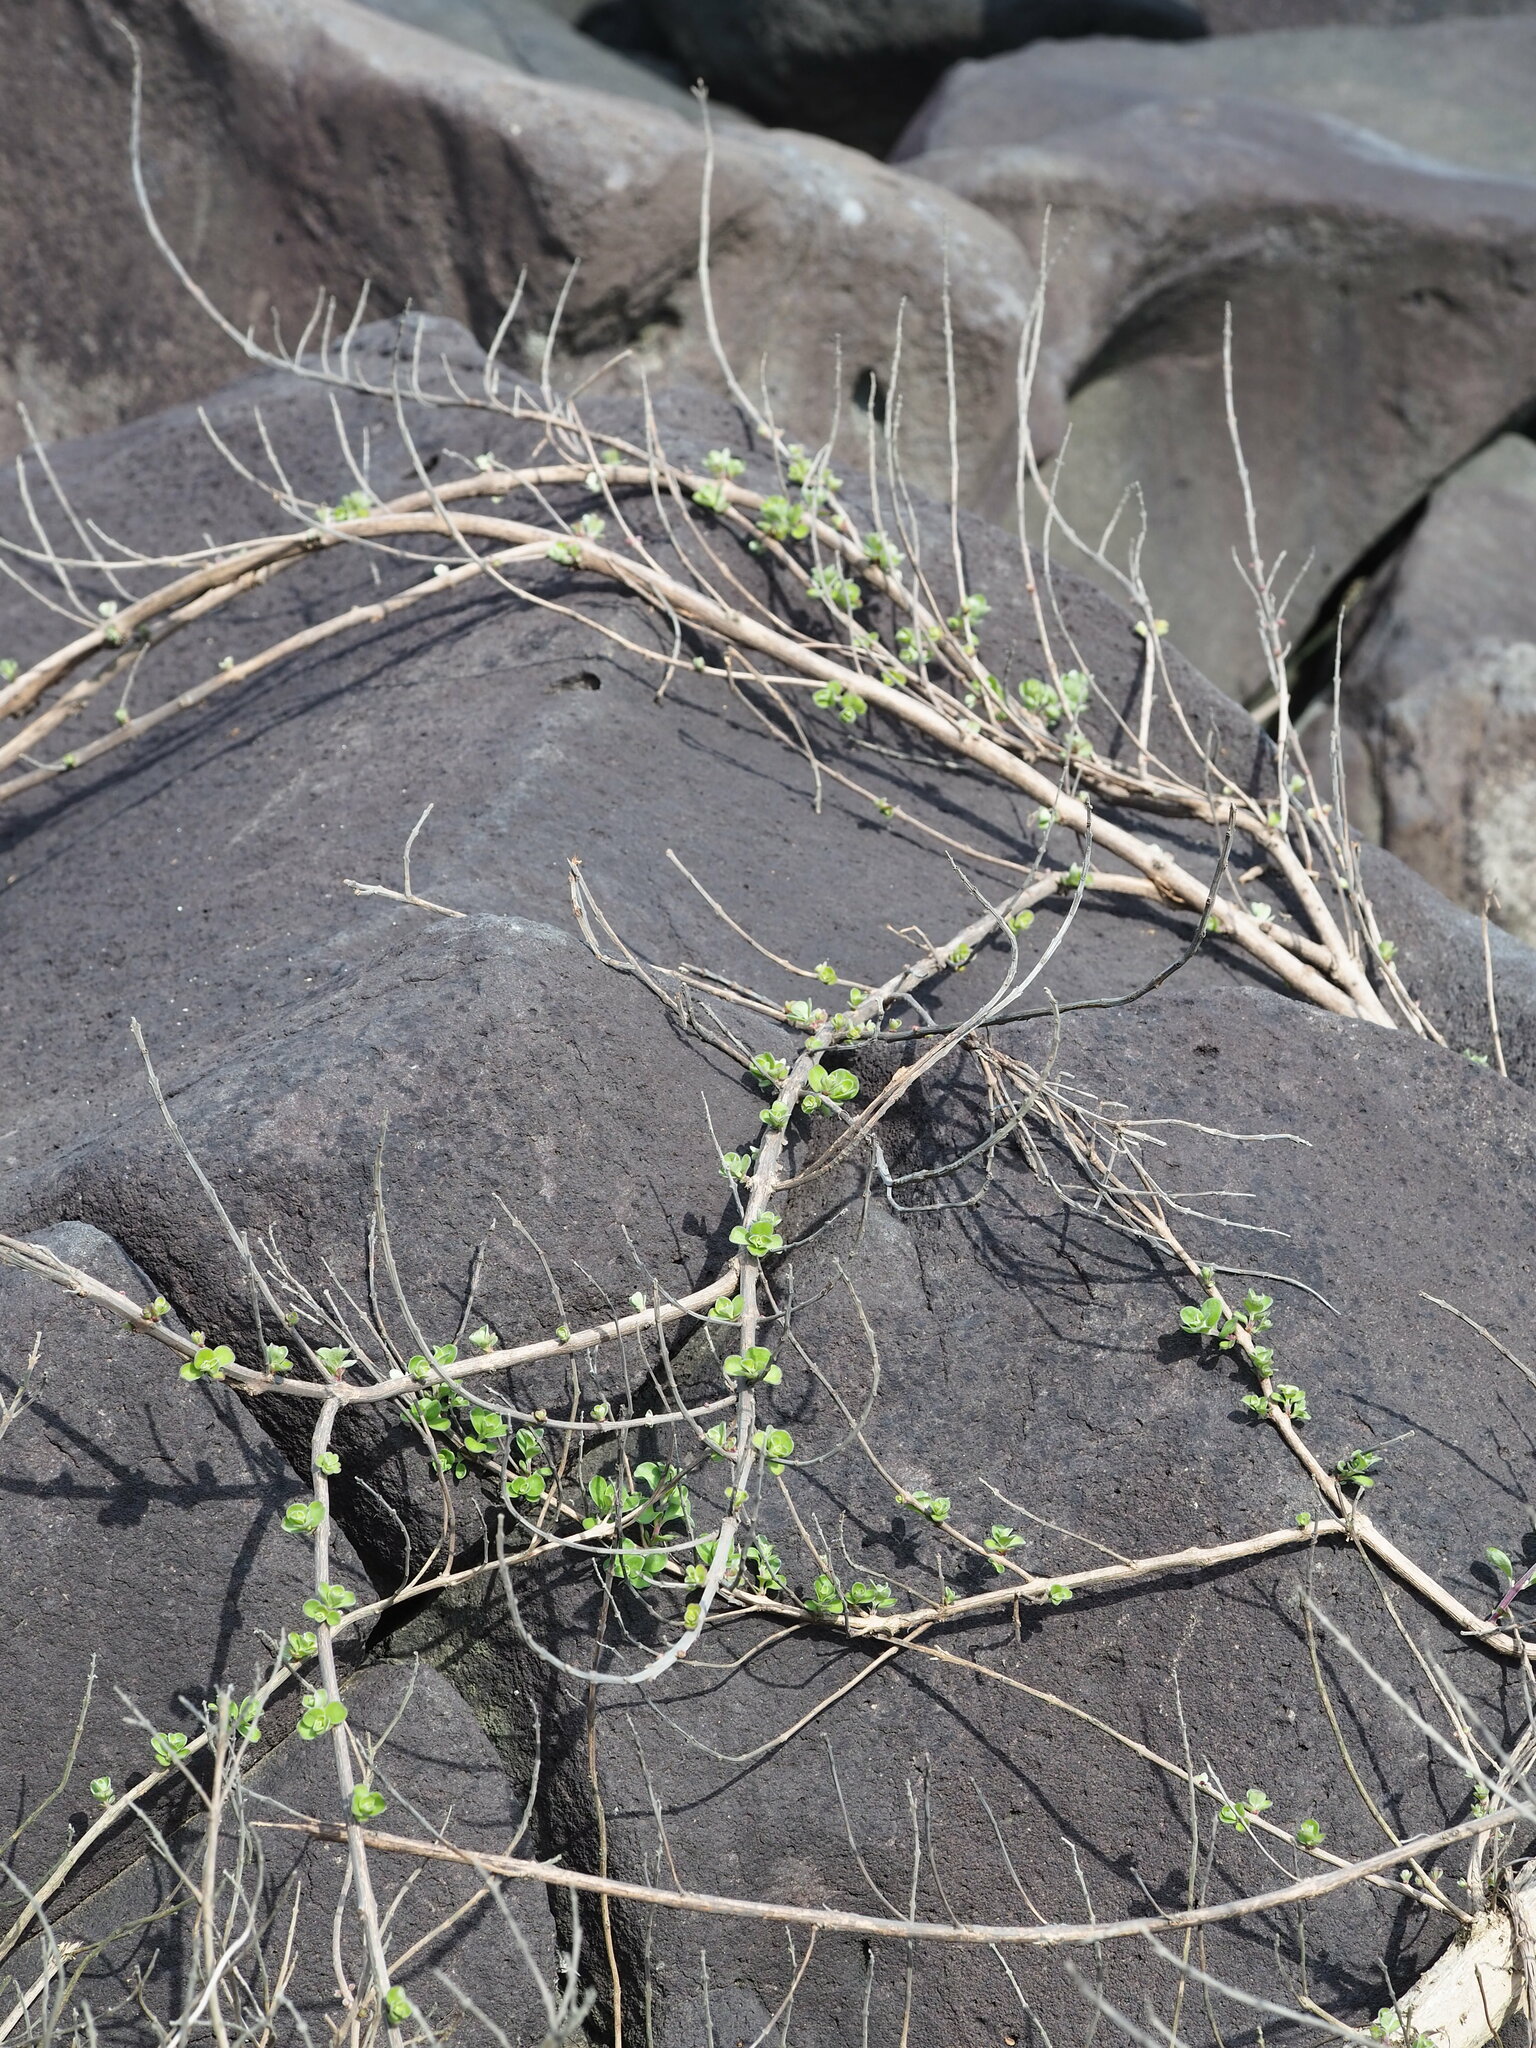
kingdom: Plantae
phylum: Tracheophyta
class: Magnoliopsida
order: Lamiales
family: Lamiaceae
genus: Vitex
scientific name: Vitex rotundifolia
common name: Beach vitex
